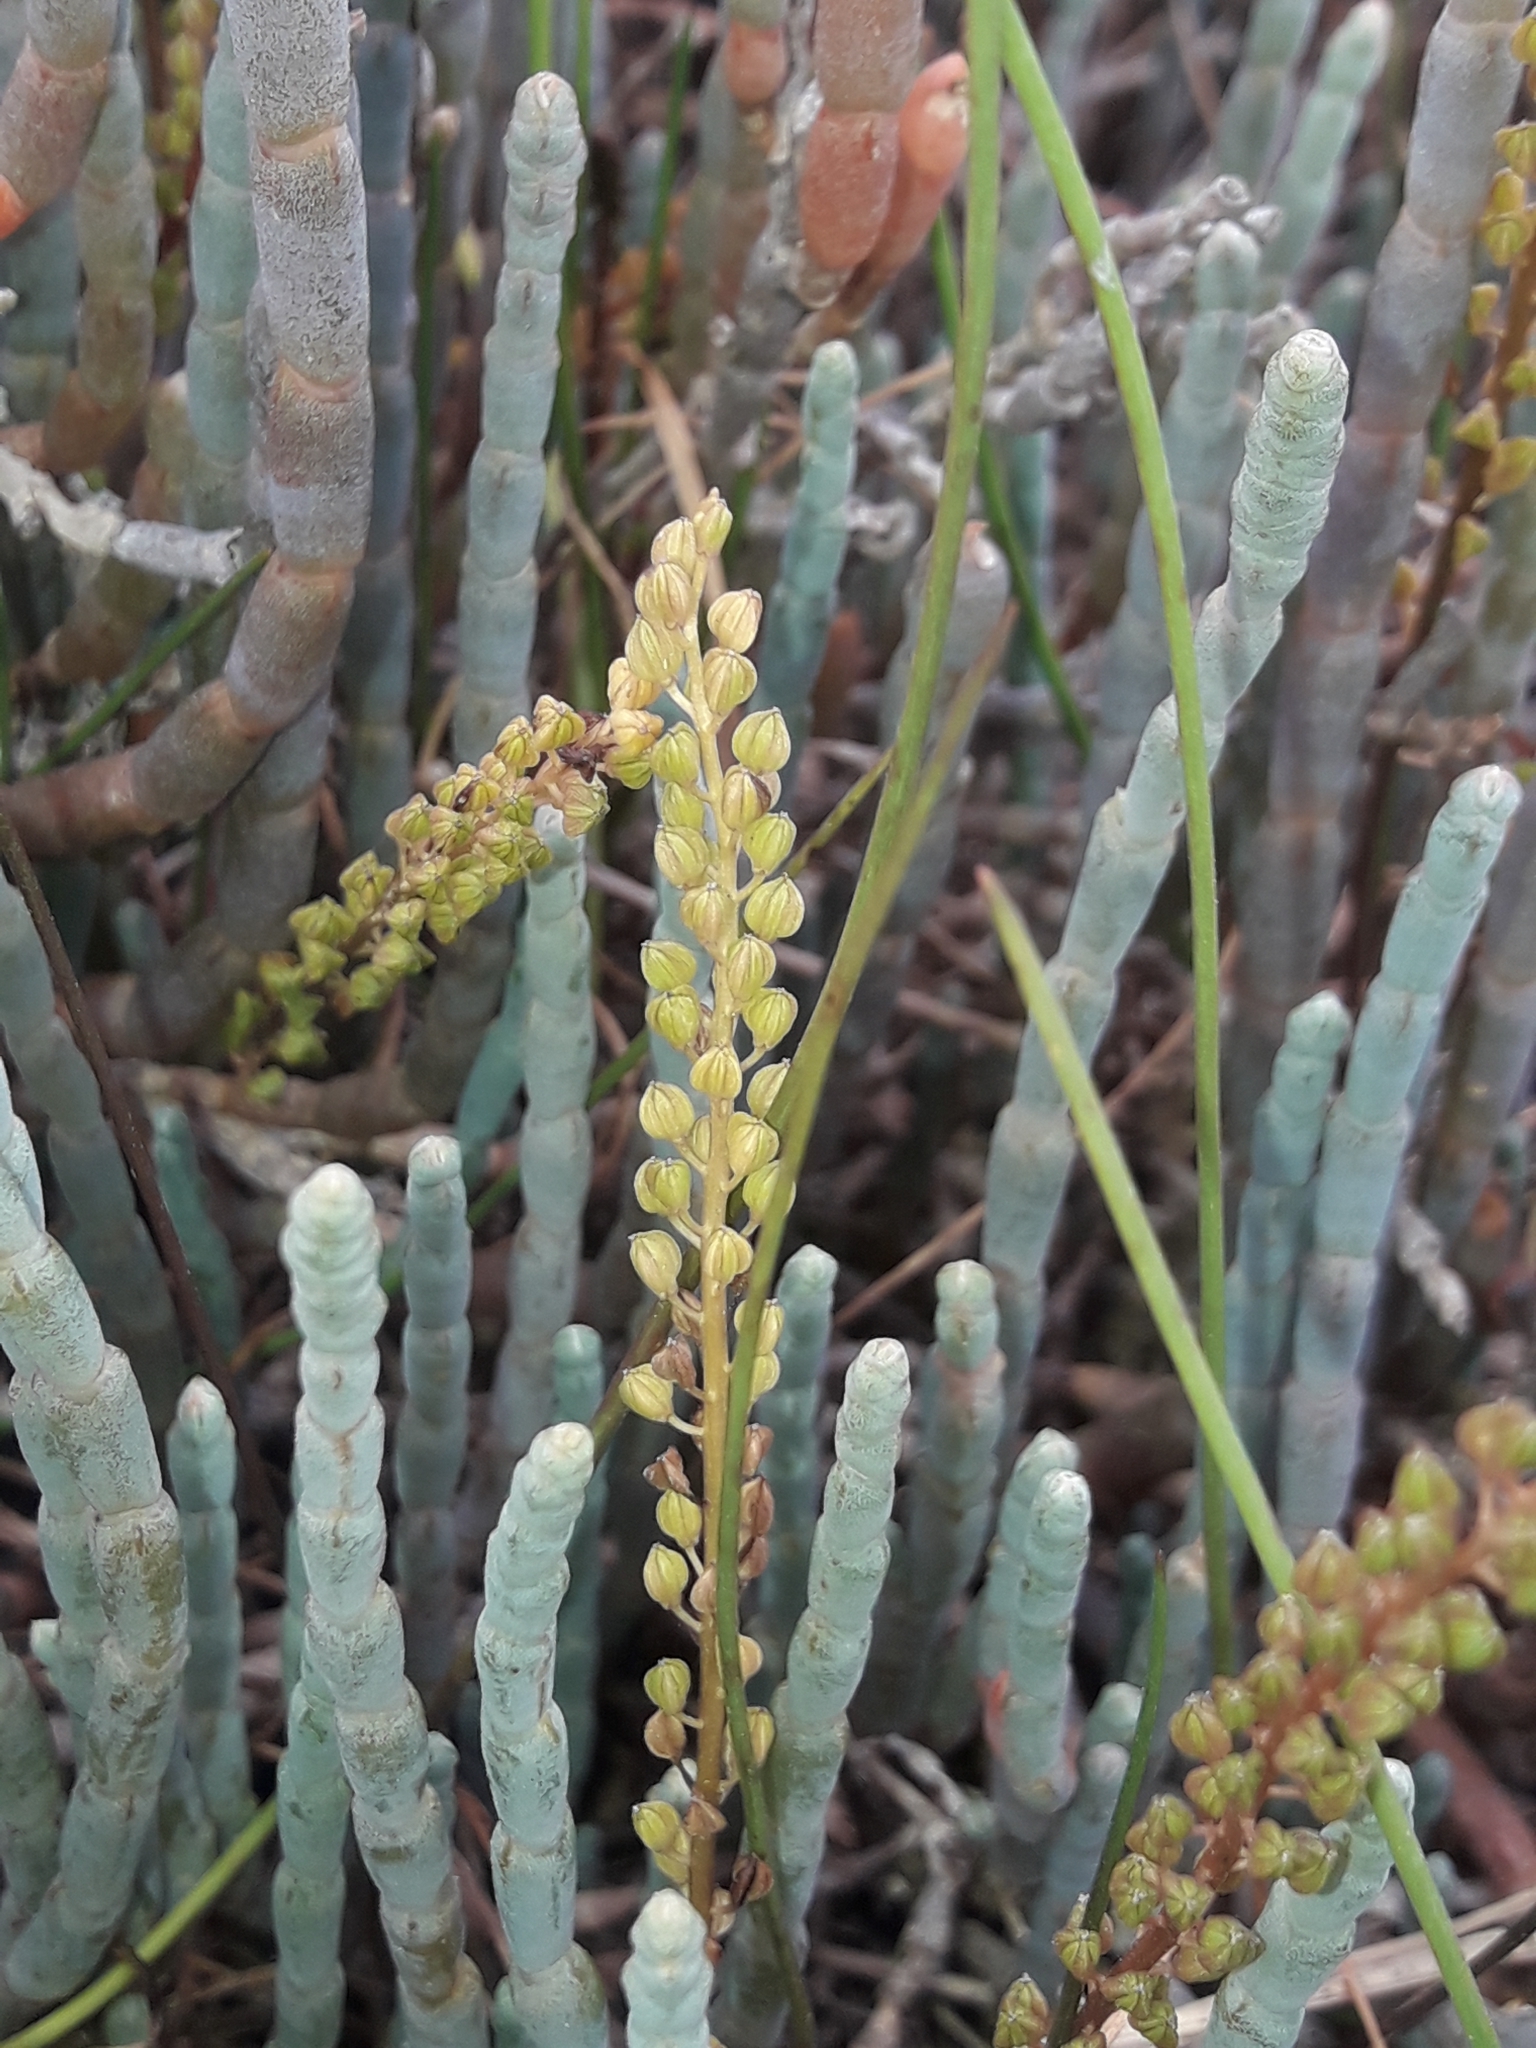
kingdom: Plantae
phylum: Tracheophyta
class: Liliopsida
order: Alismatales
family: Juncaginaceae
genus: Triglochin
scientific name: Triglochin striata
